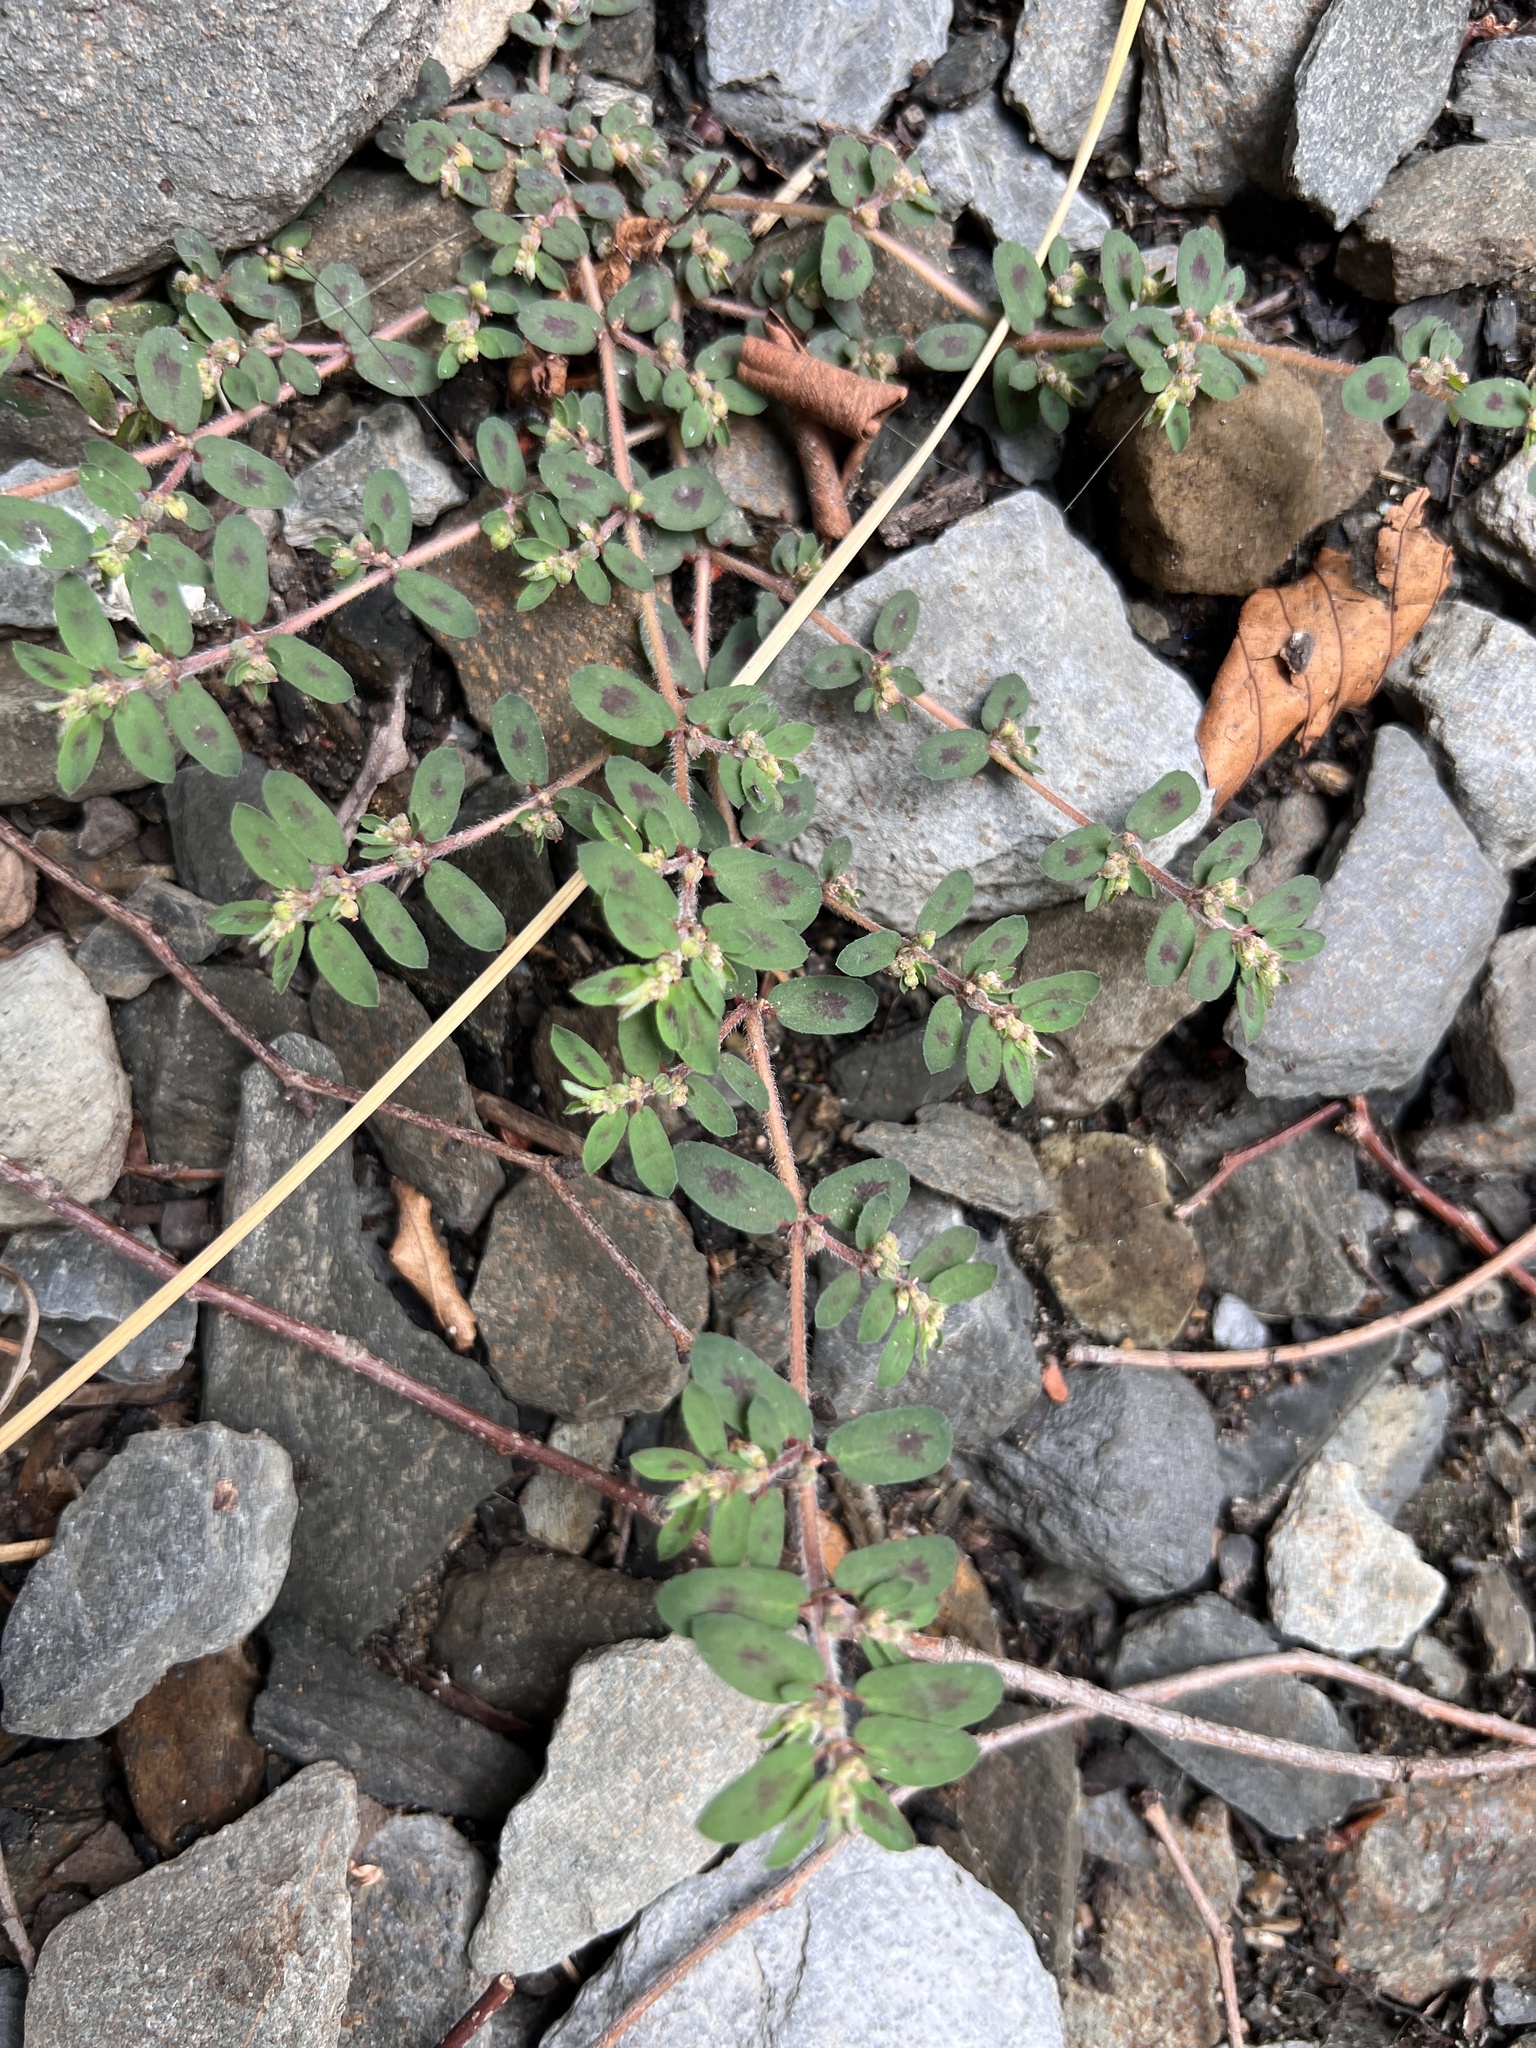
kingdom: Plantae
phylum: Tracheophyta
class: Magnoliopsida
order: Malpighiales
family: Euphorbiaceae
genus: Euphorbia
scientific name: Euphorbia maculata
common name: Spotted spurge
